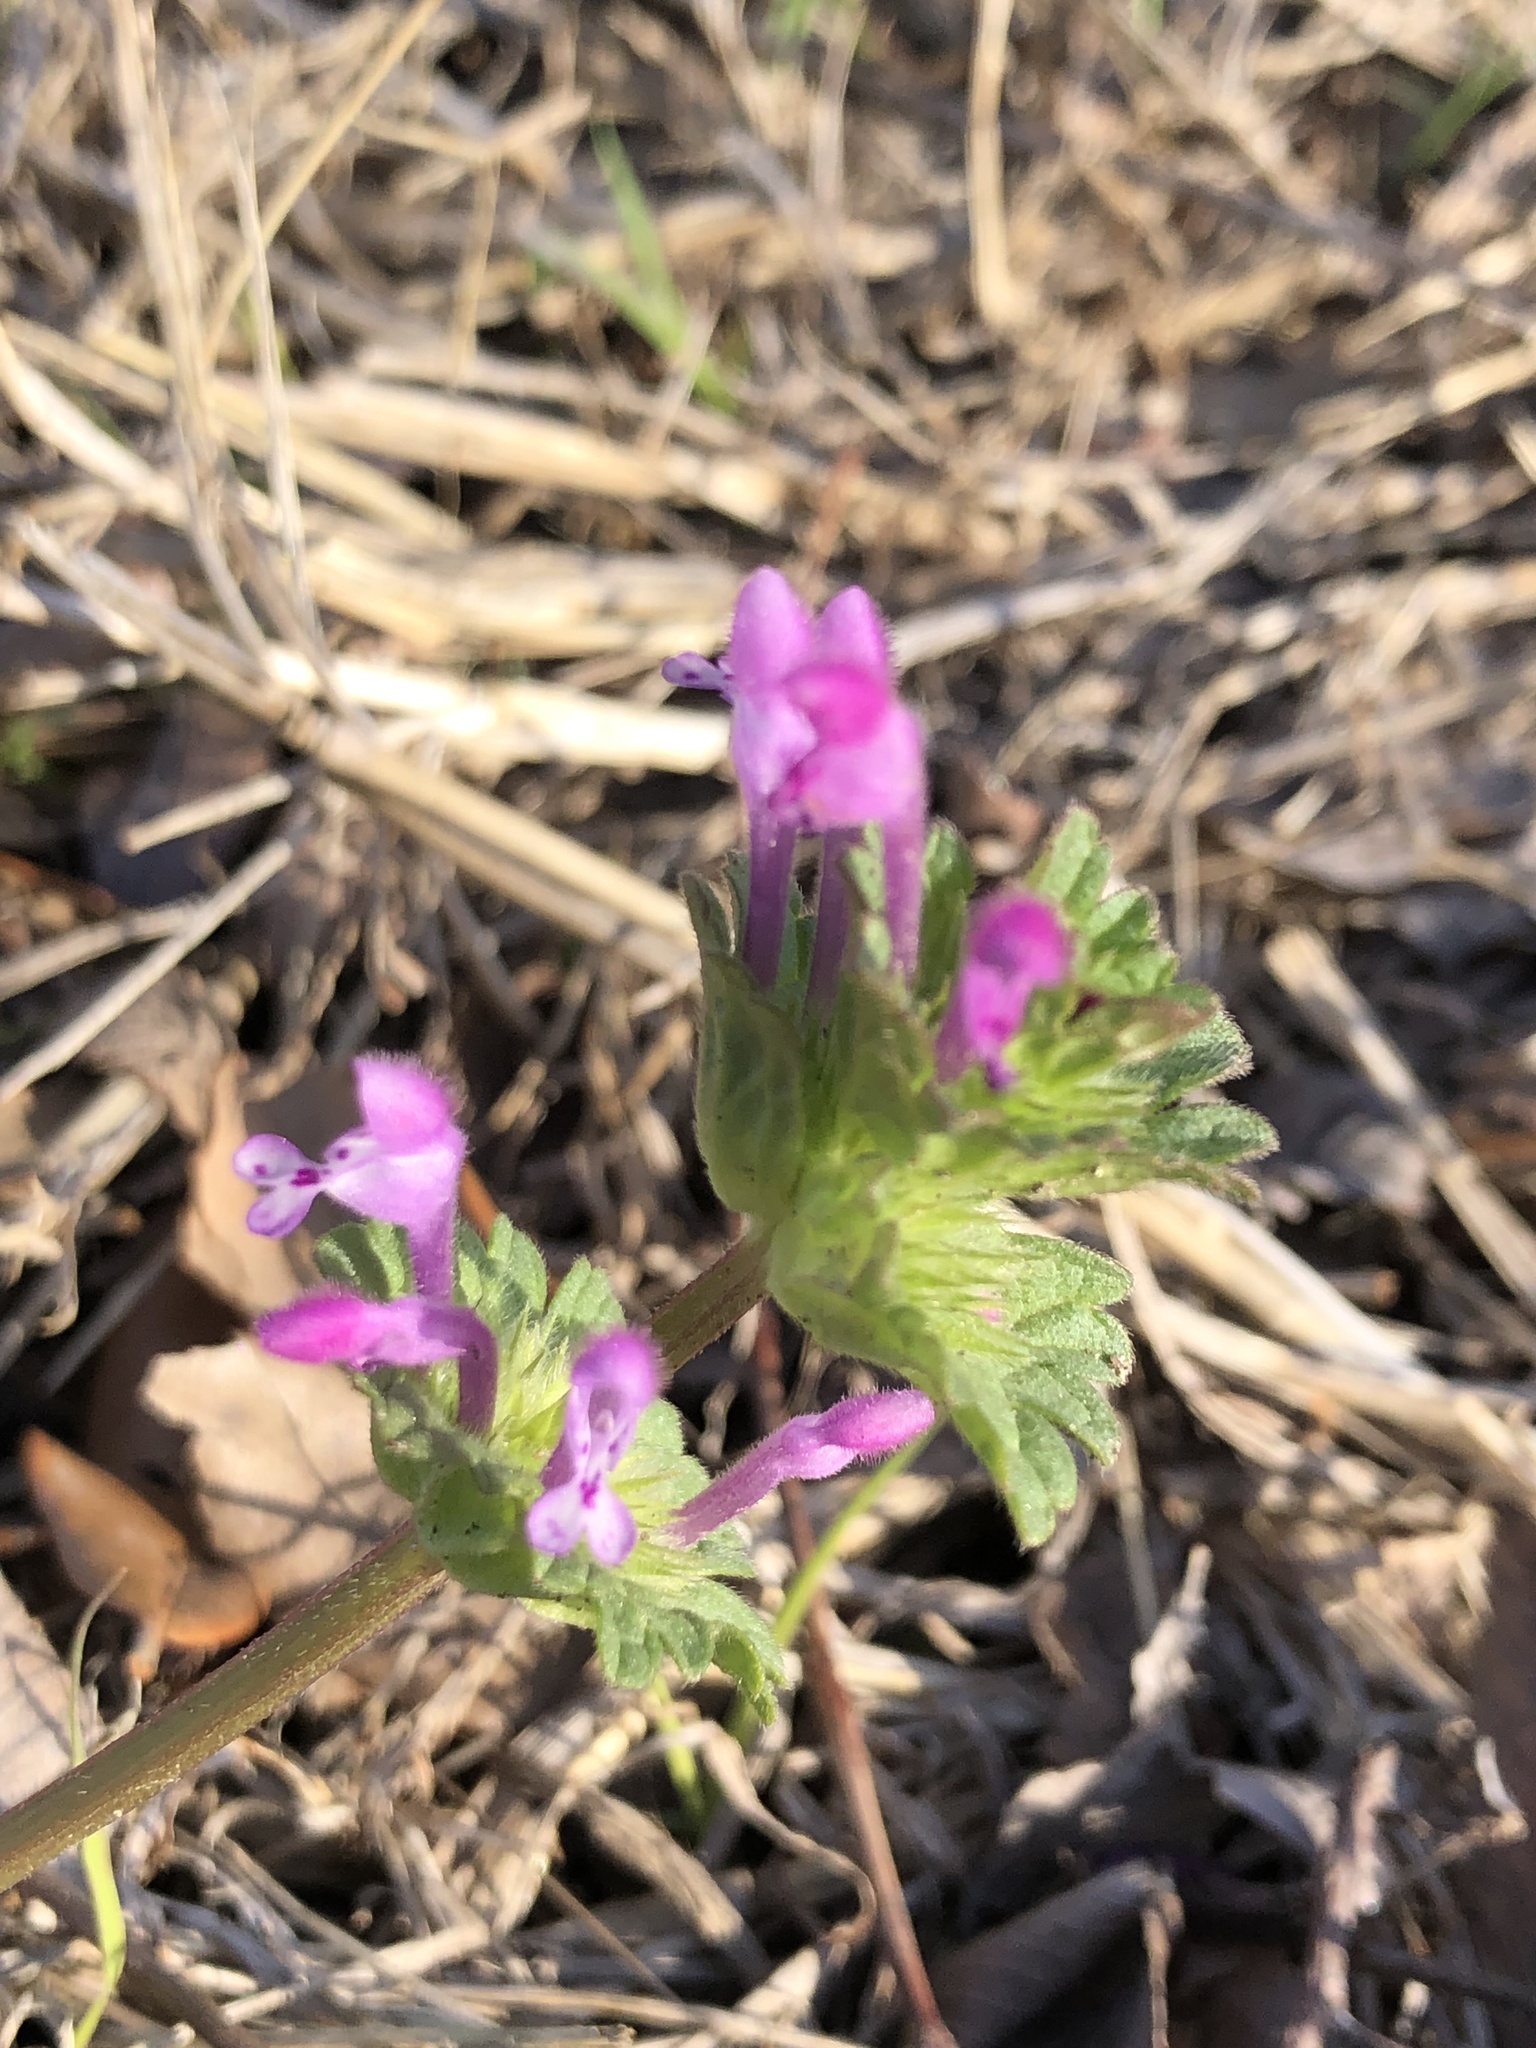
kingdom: Plantae
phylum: Tracheophyta
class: Magnoliopsida
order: Lamiales
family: Lamiaceae
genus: Lamium
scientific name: Lamium amplexicaule
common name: Henbit dead-nettle
